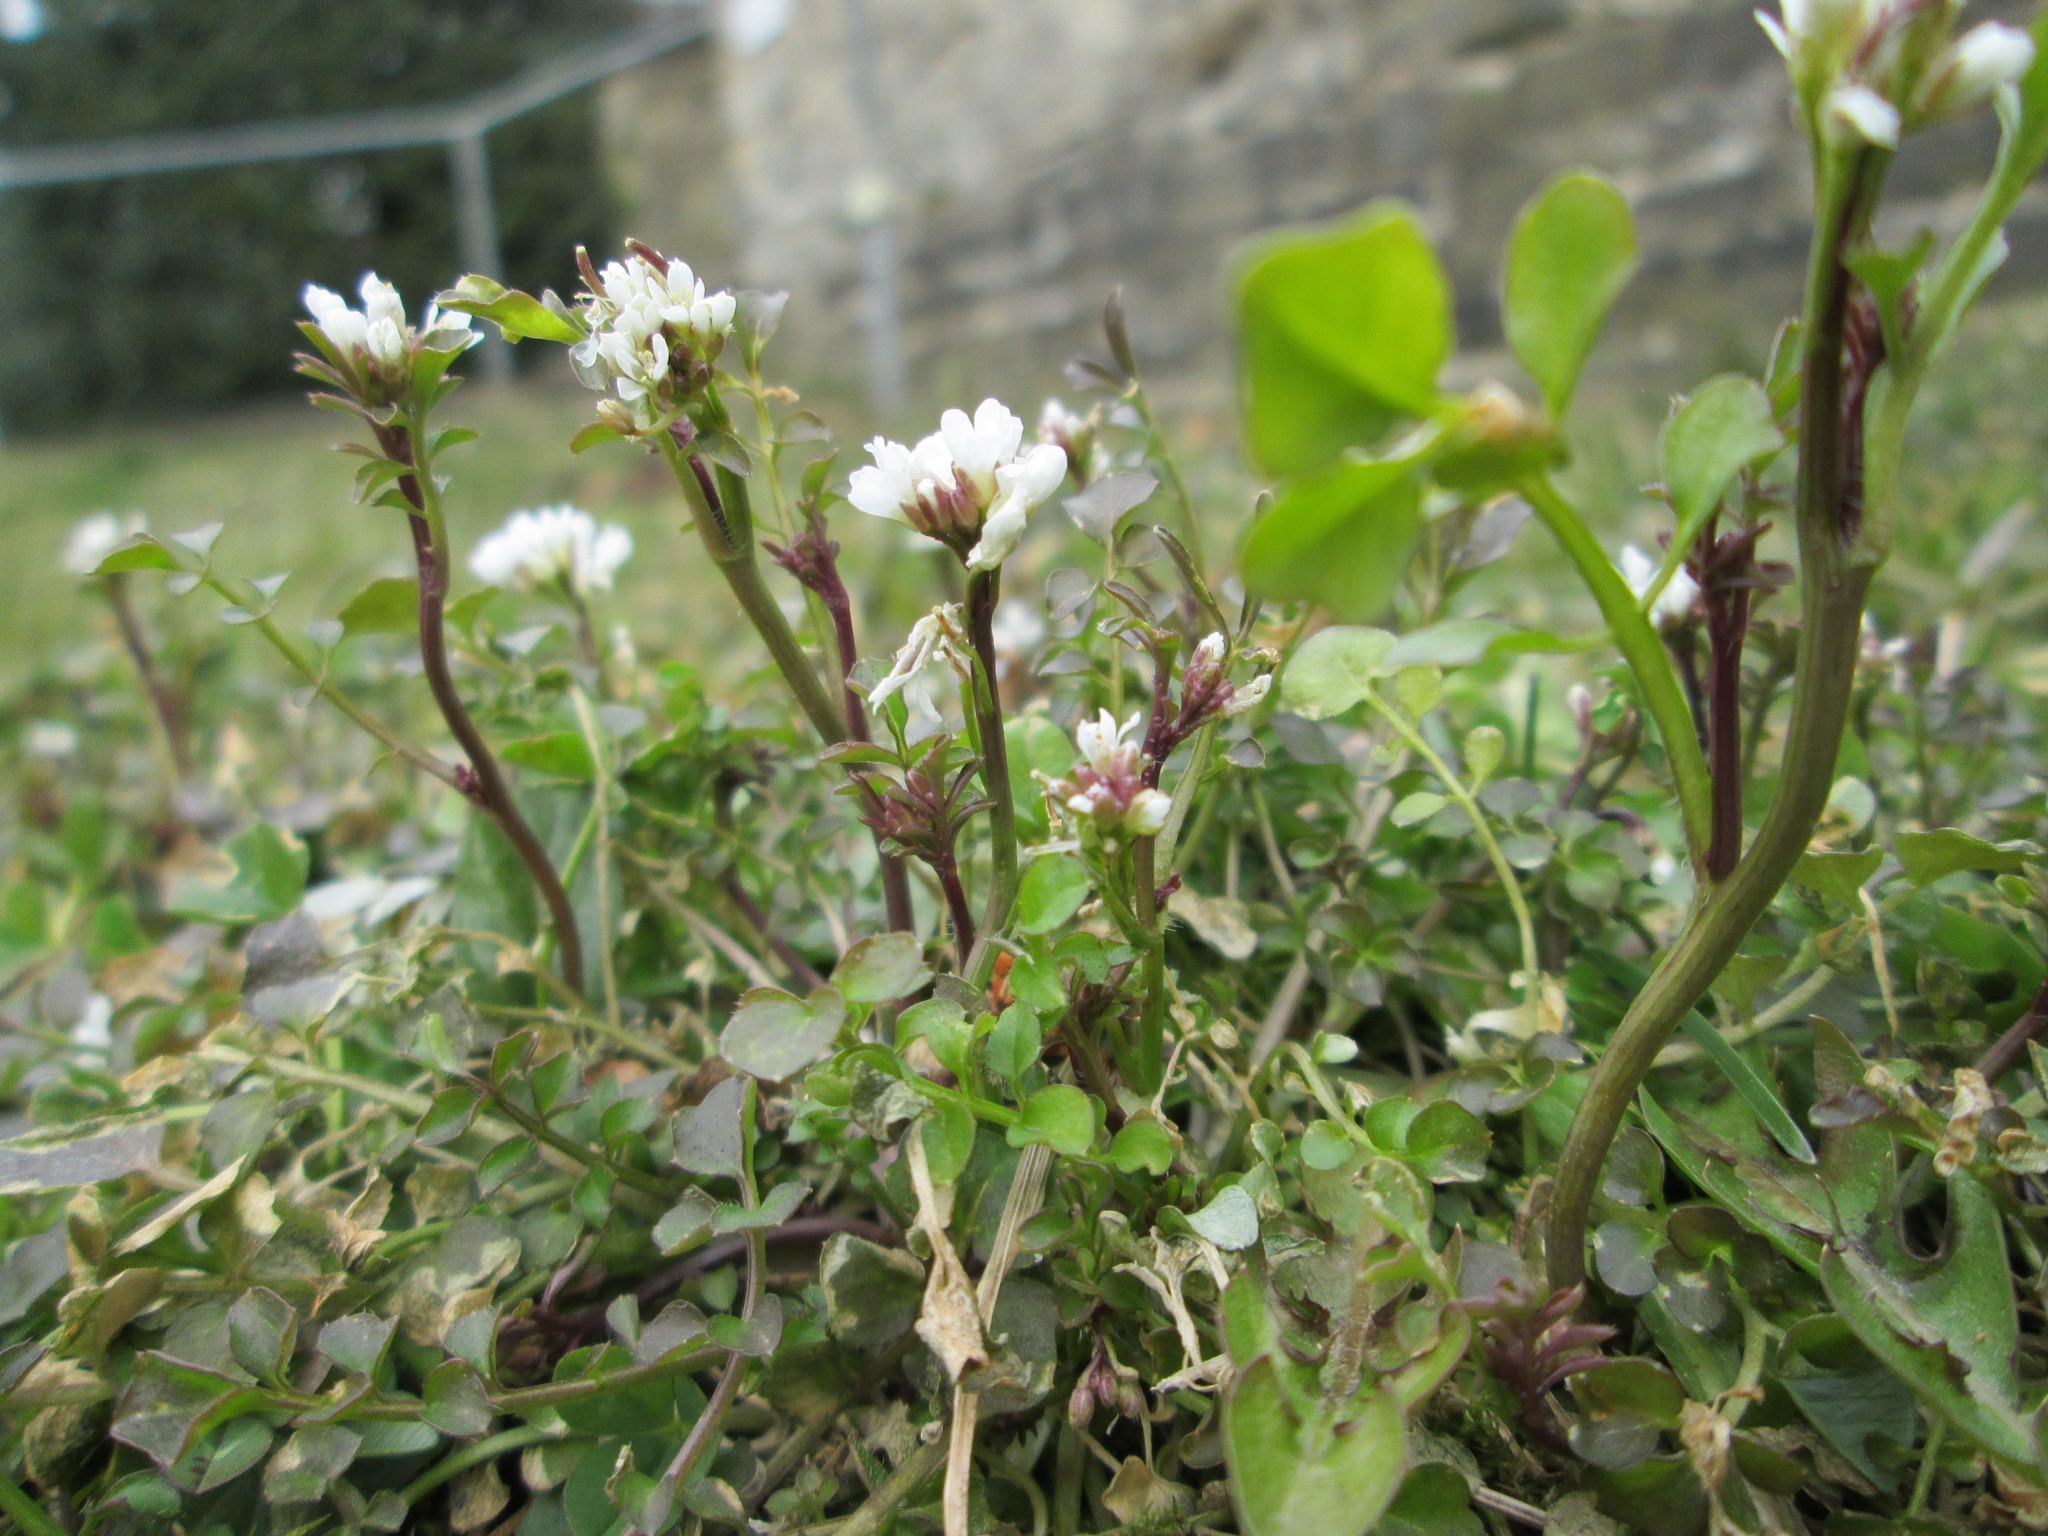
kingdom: Plantae
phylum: Tracheophyta
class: Magnoliopsida
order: Brassicales
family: Brassicaceae
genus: Cardamine
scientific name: Cardamine hirsuta
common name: Hairy bittercress
